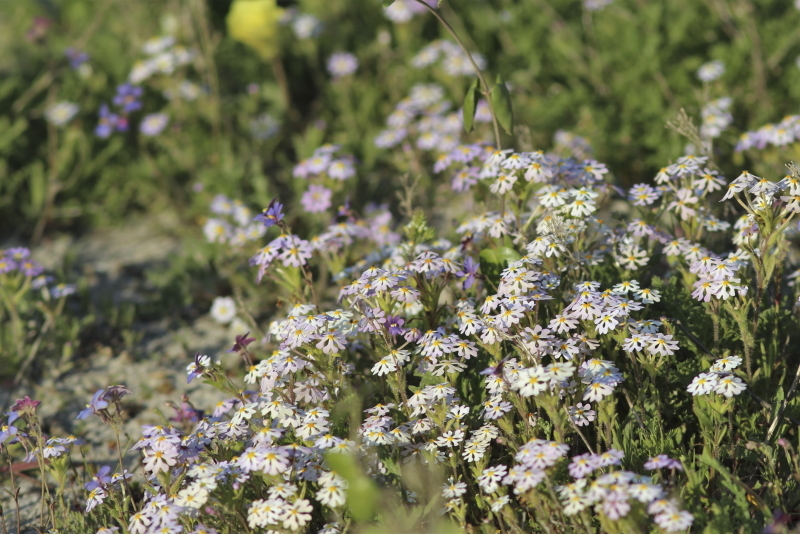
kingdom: Plantae
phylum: Tracheophyta
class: Magnoliopsida
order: Lamiales
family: Scrophulariaceae
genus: Zaluzianskya
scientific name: Zaluzianskya villosa
